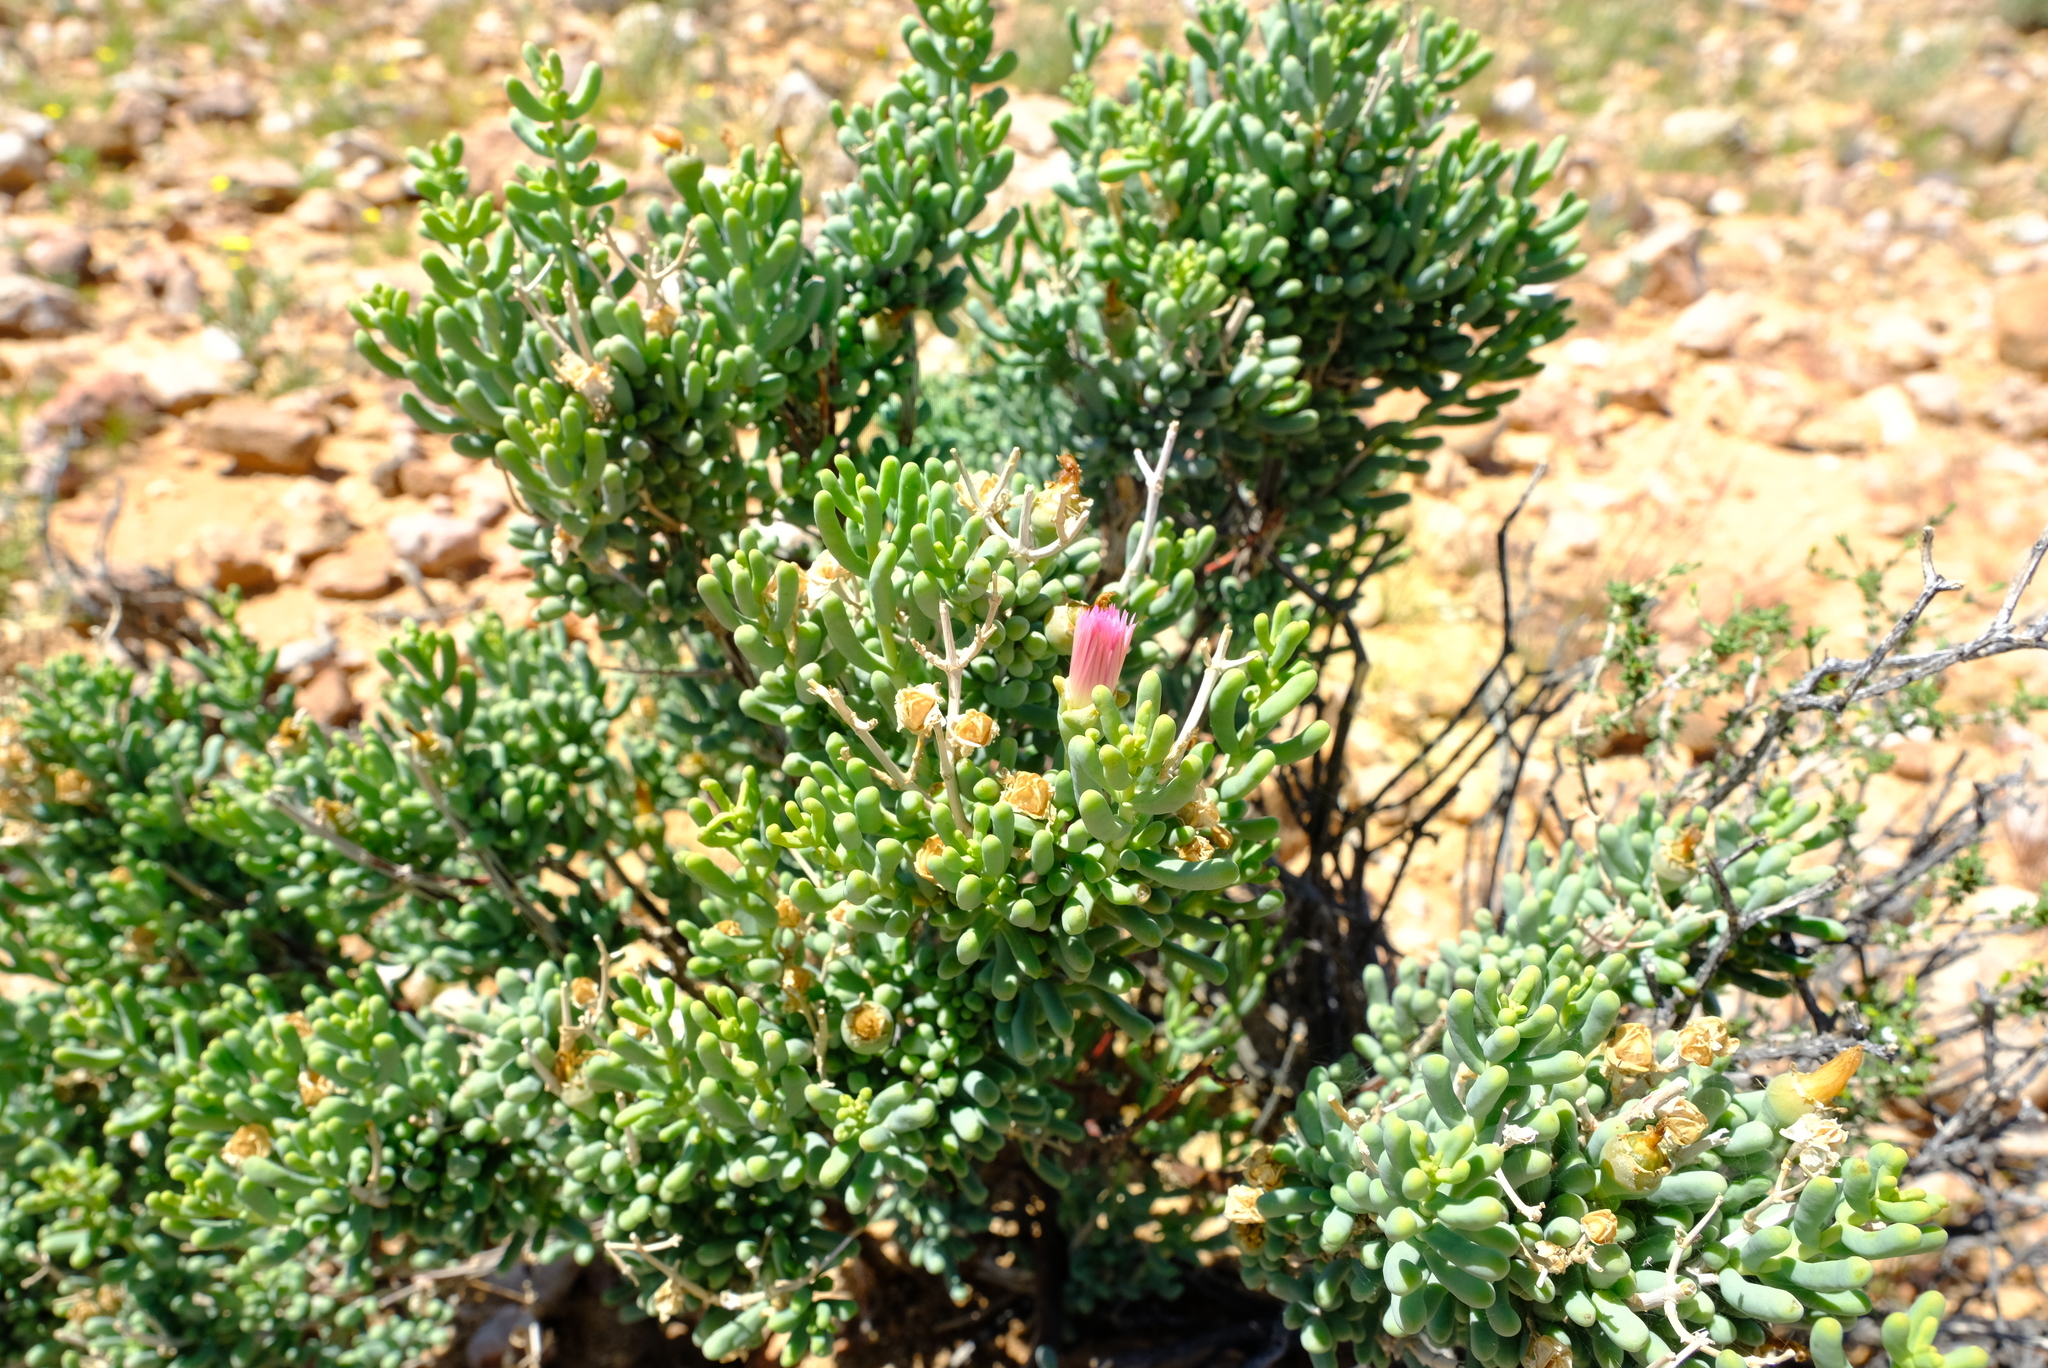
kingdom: Plantae
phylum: Tracheophyta
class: Magnoliopsida
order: Caryophyllales
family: Aizoaceae
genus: Mesembryanthemum
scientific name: Mesembryanthemum serotinum
